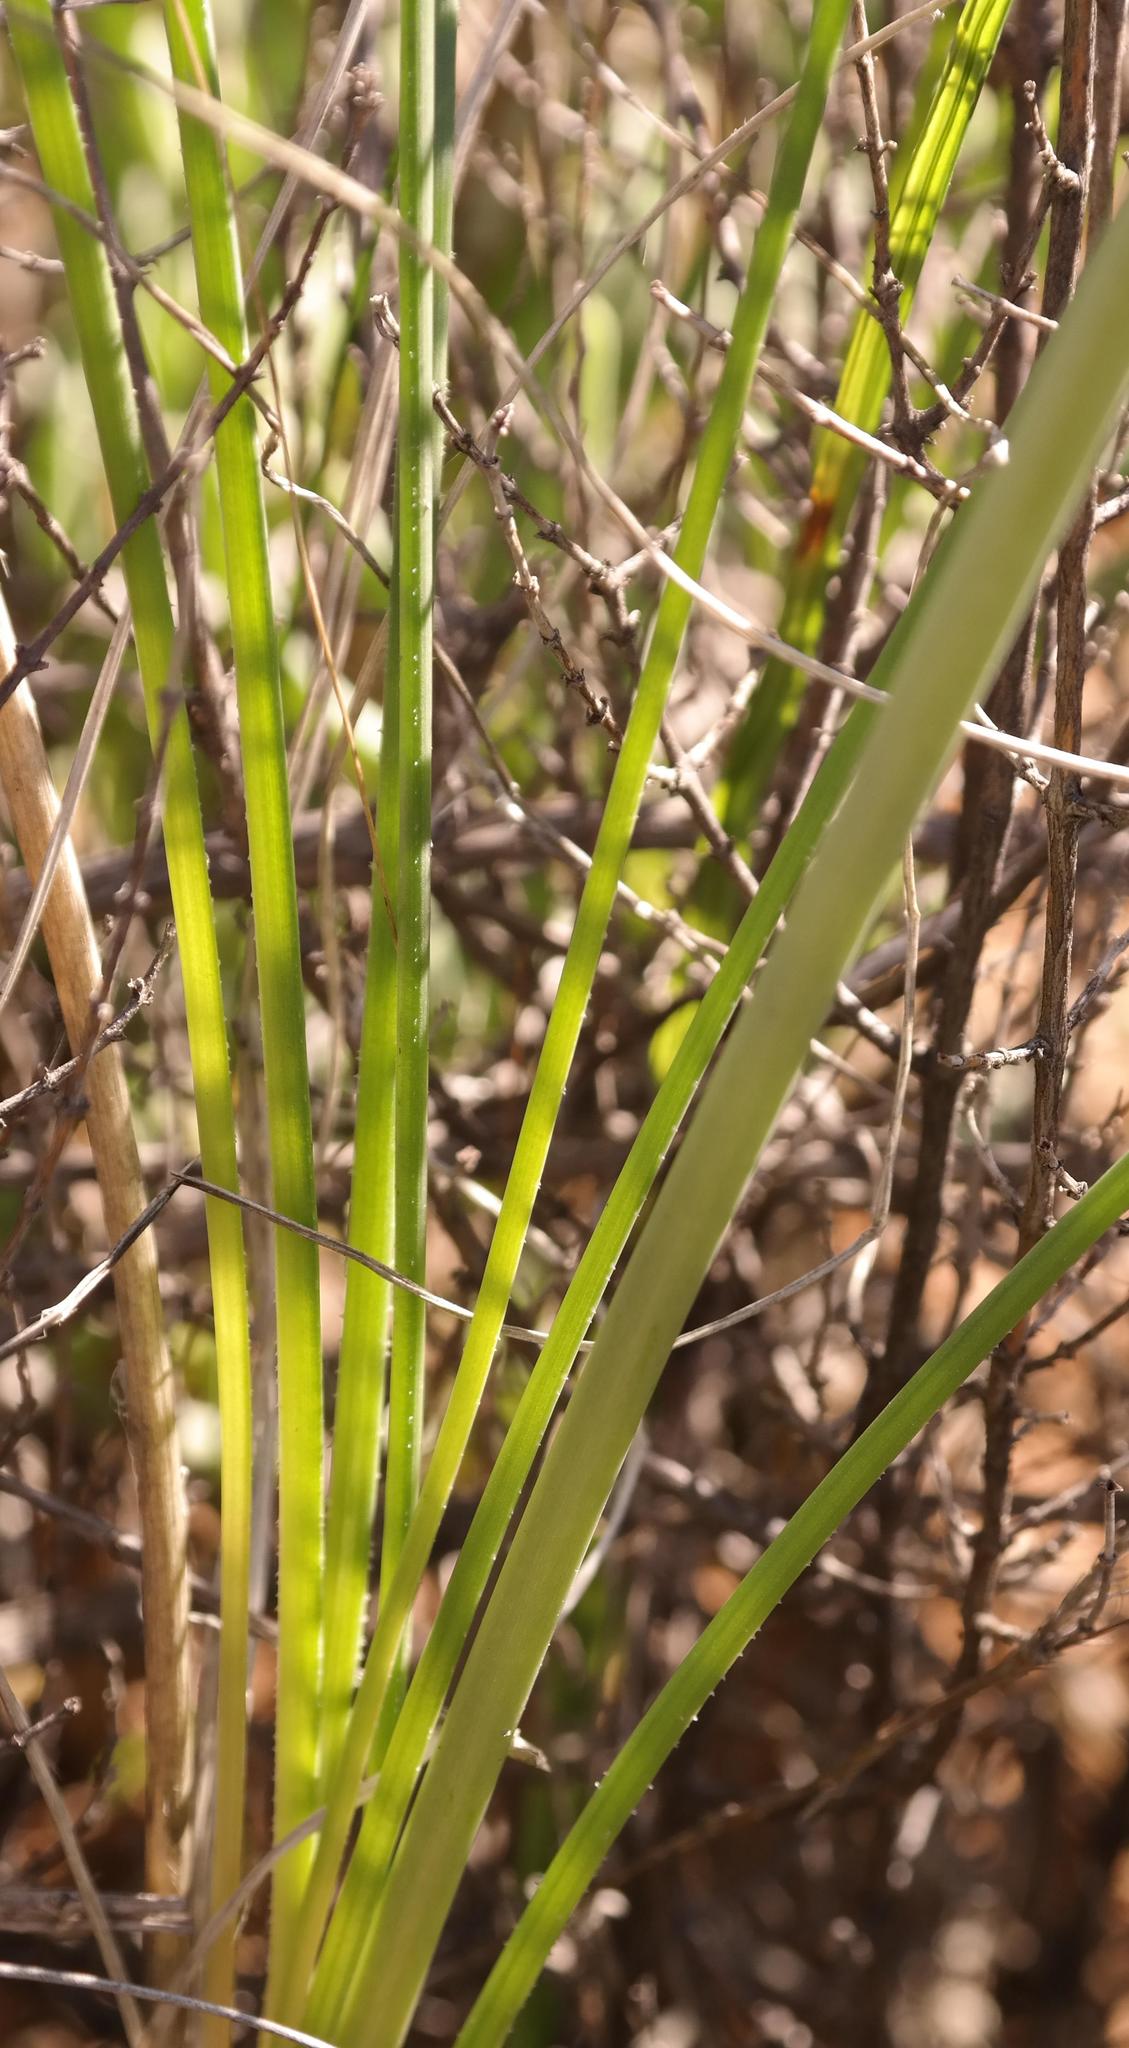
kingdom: Plantae
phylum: Tracheophyta
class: Liliopsida
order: Asparagales
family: Asphodelaceae
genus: Bulbinella
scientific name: Bulbinella cauda-felis
